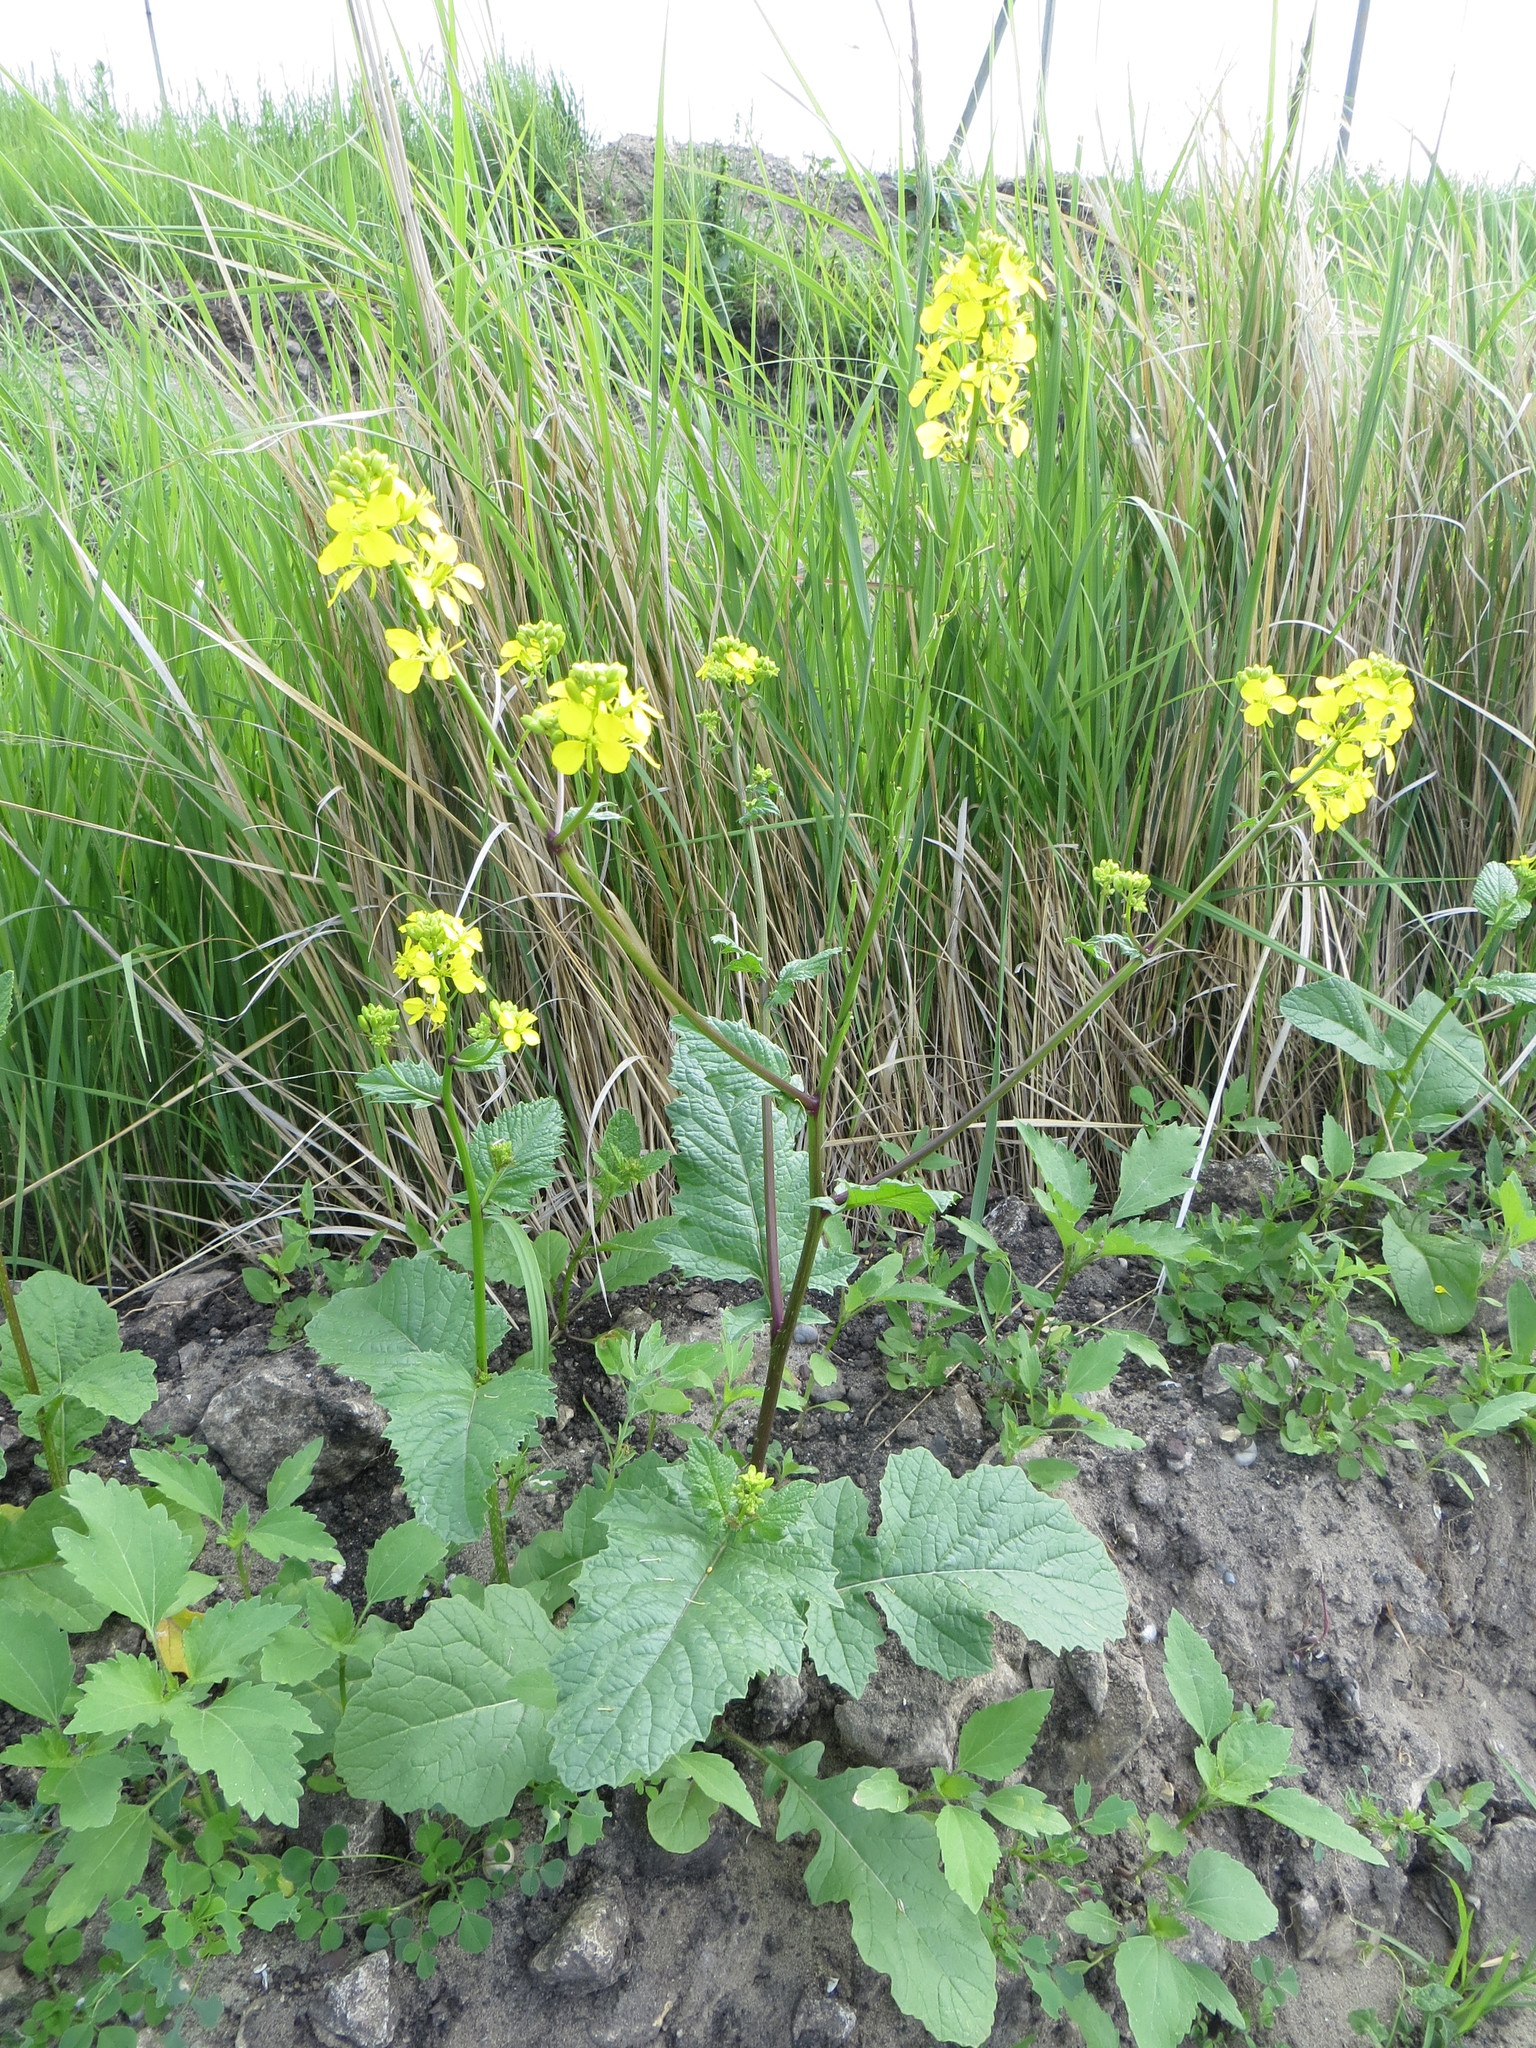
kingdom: Plantae
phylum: Tracheophyta
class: Magnoliopsida
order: Brassicales
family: Brassicaceae
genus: Sinapis
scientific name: Sinapis arvensis
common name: Charlock
